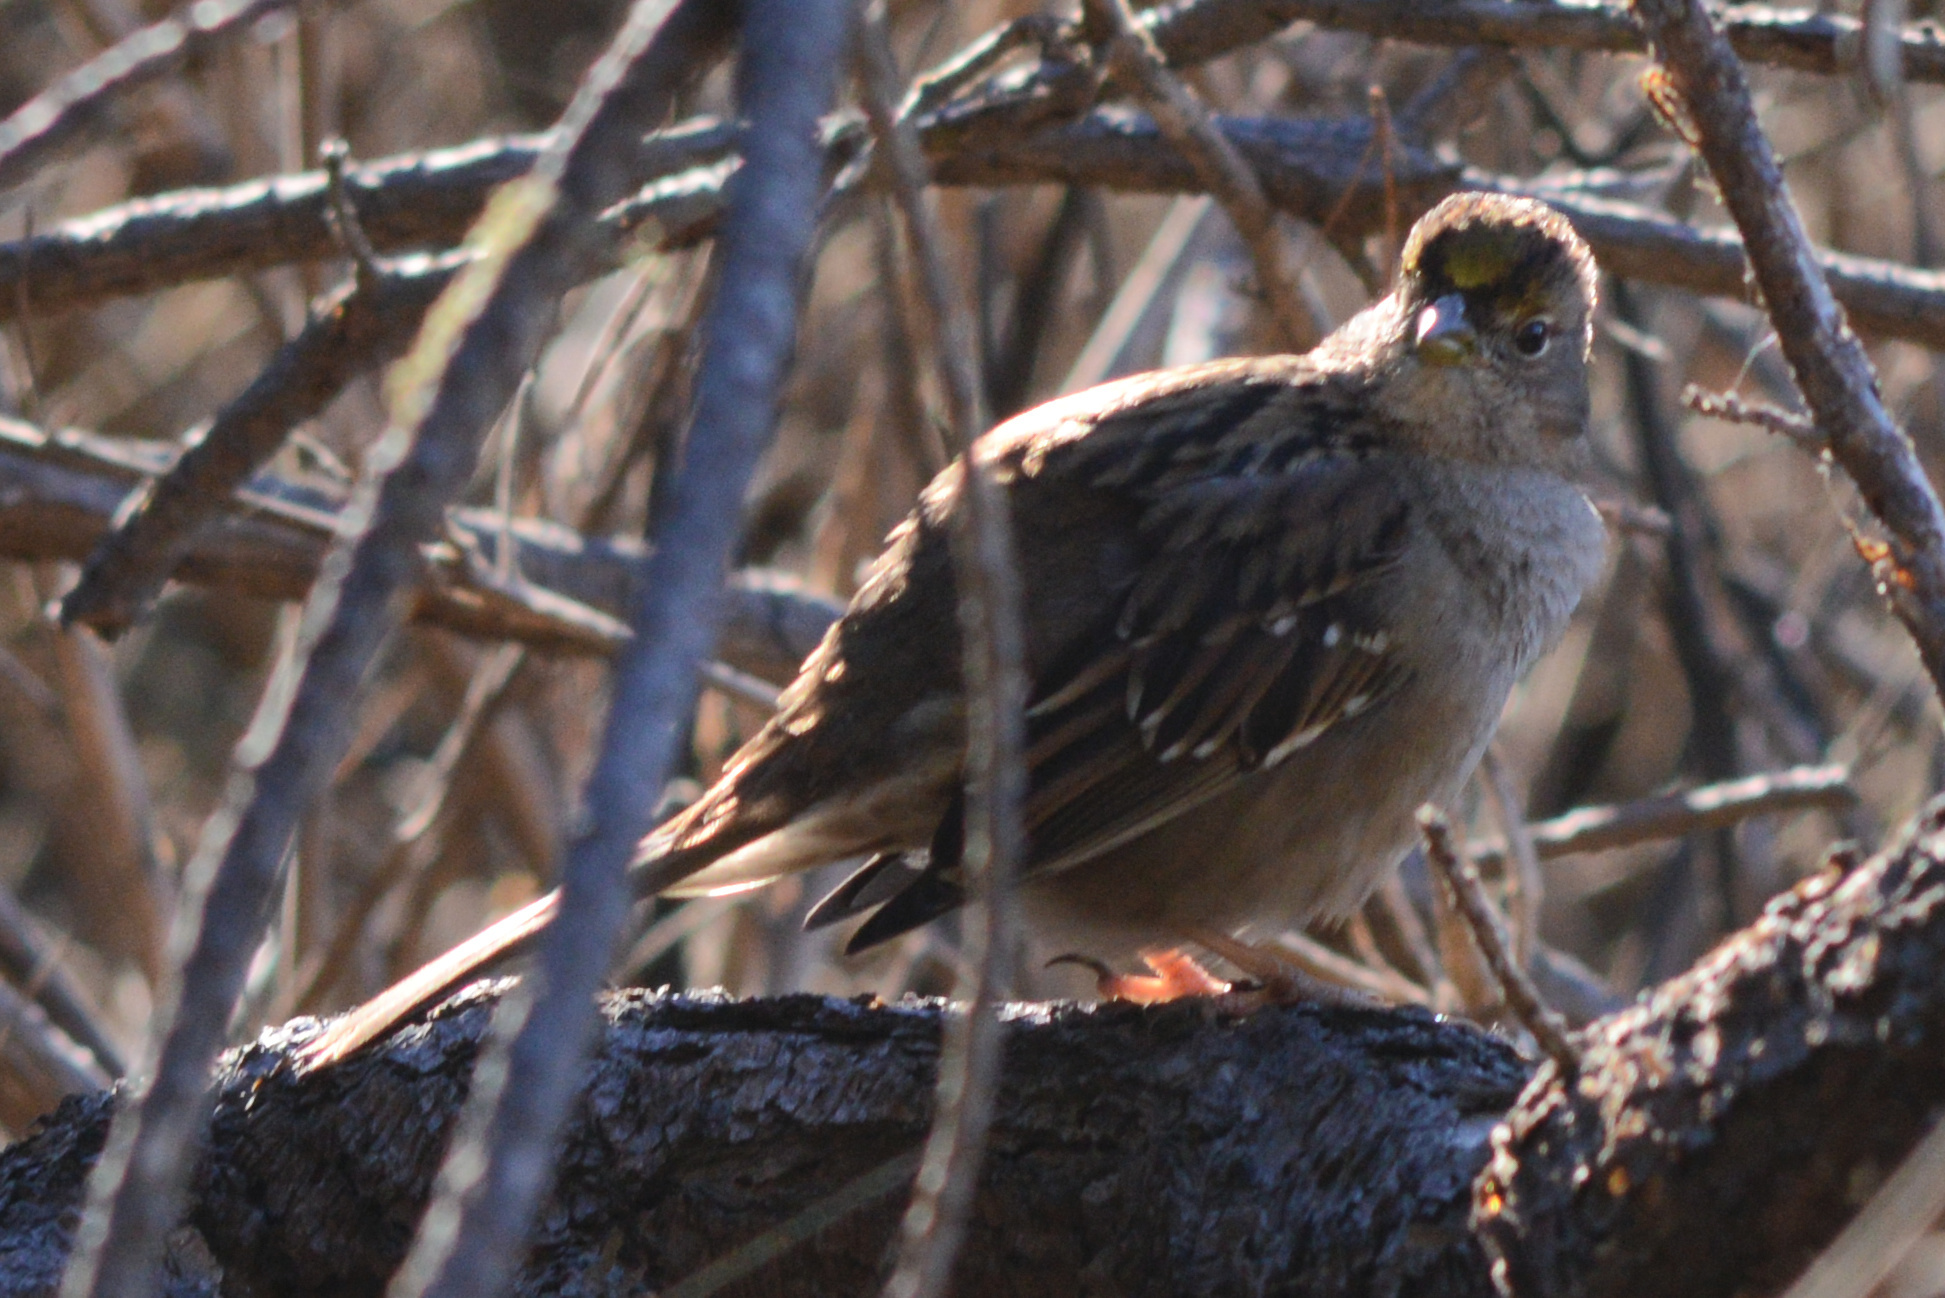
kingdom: Animalia
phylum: Chordata
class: Aves
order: Passeriformes
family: Passerellidae
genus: Zonotrichia
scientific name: Zonotrichia atricapilla
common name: Golden-crowned sparrow
